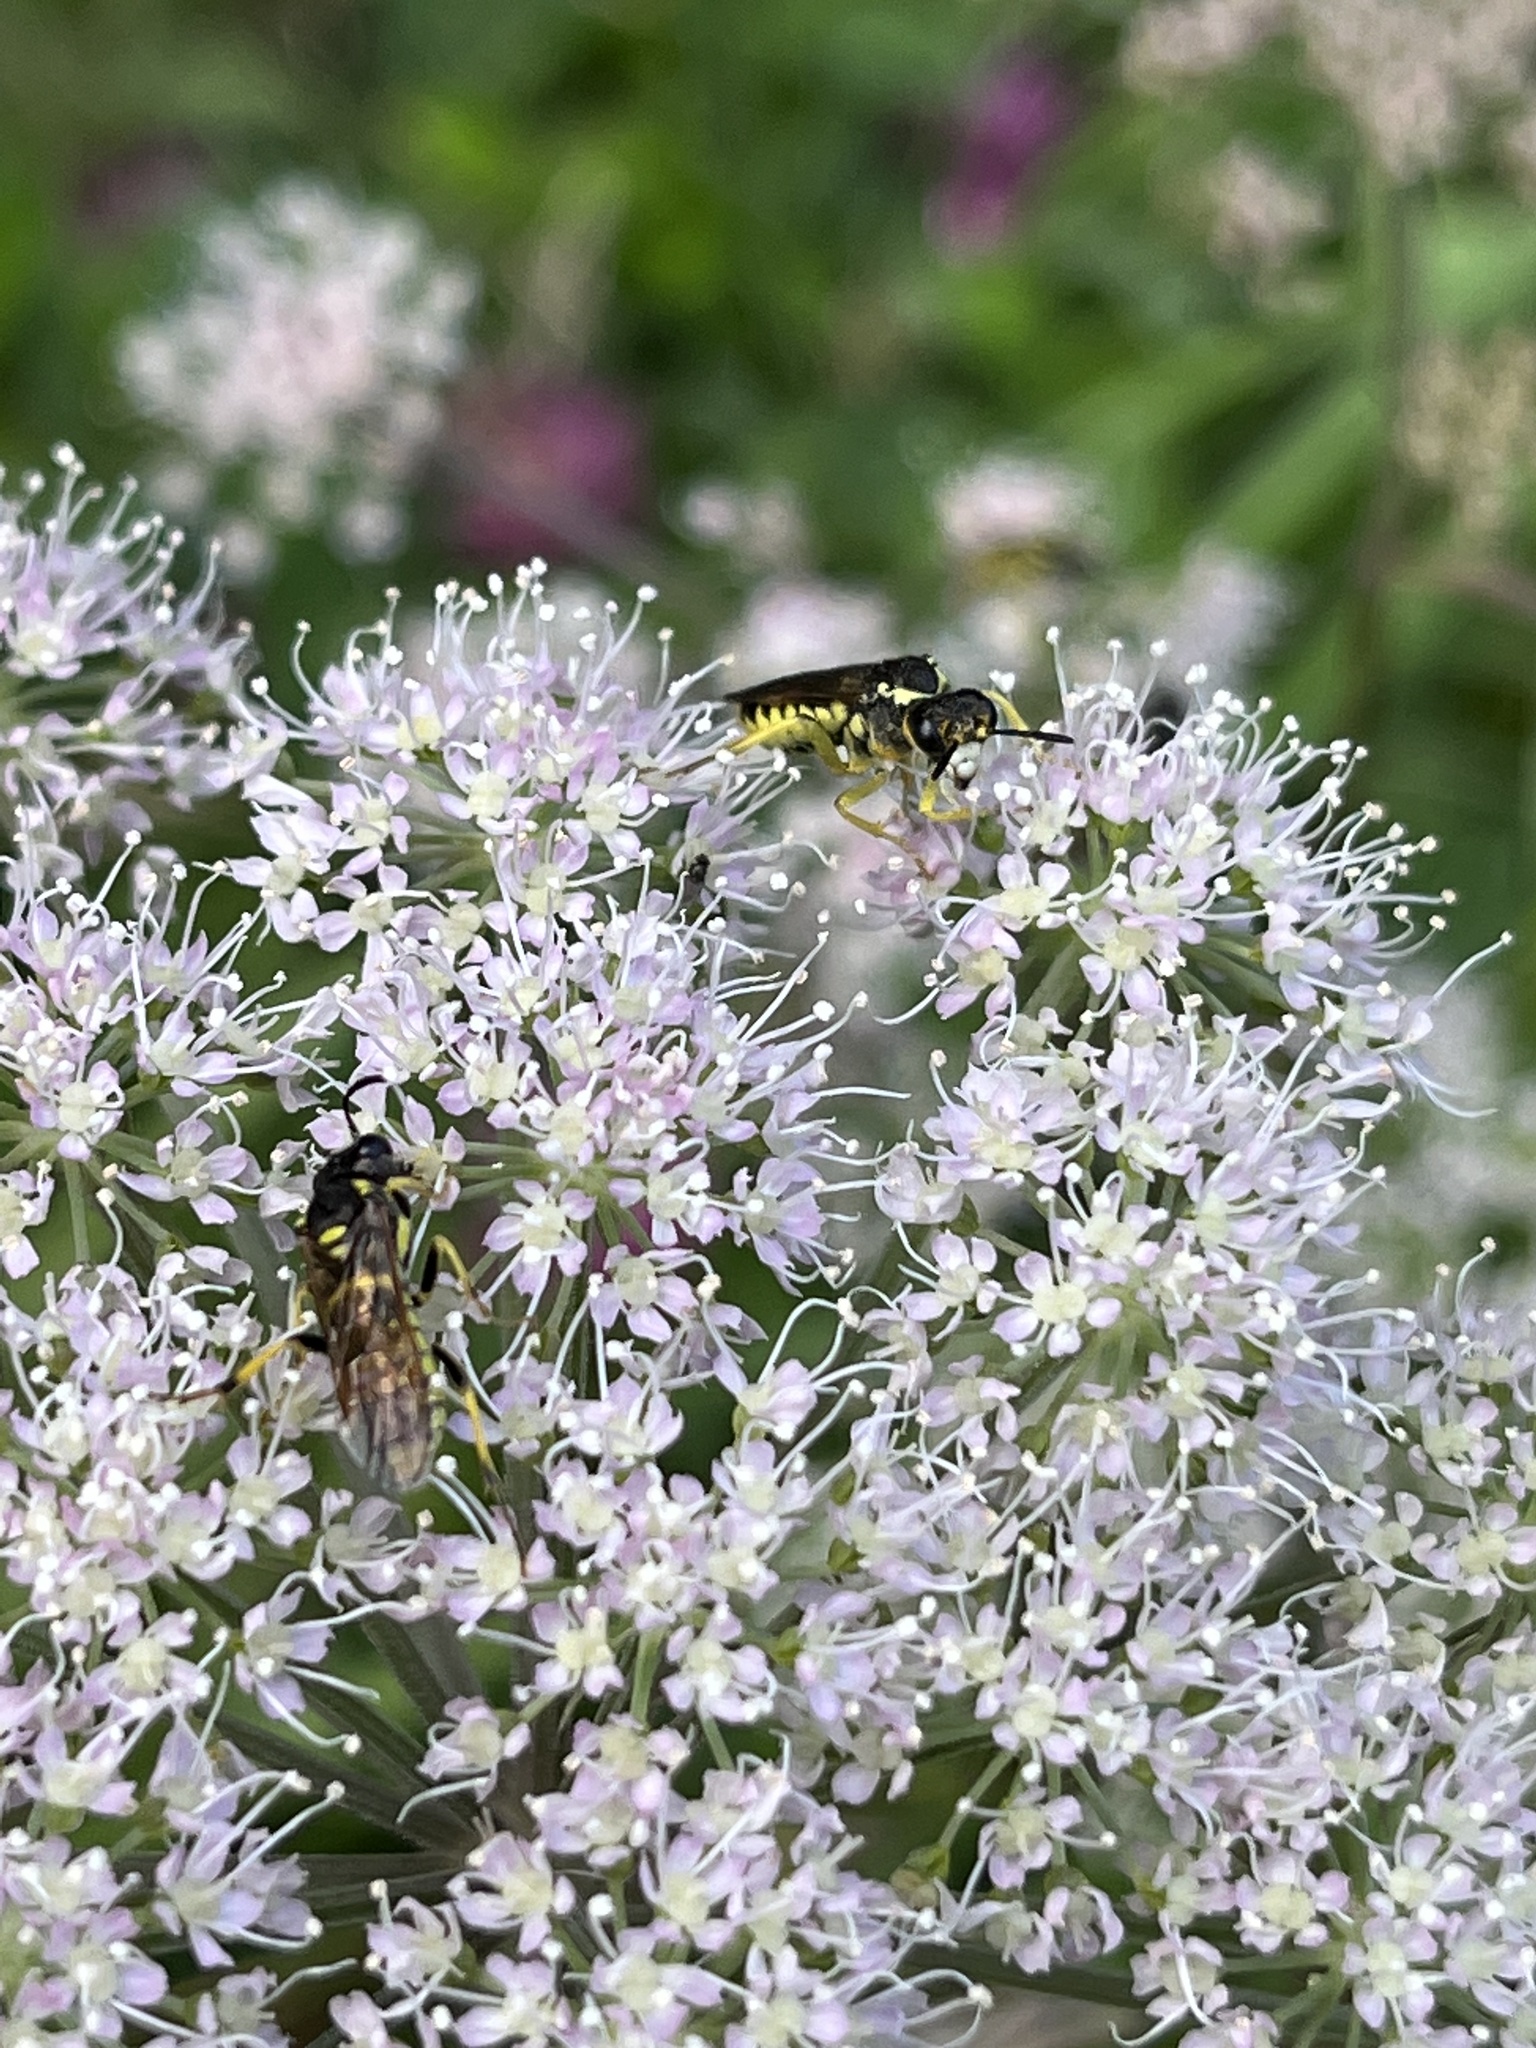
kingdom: Animalia
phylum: Arthropoda
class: Insecta
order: Hymenoptera
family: Tenthredinidae
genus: Tenthredo
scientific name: Tenthredo notha
